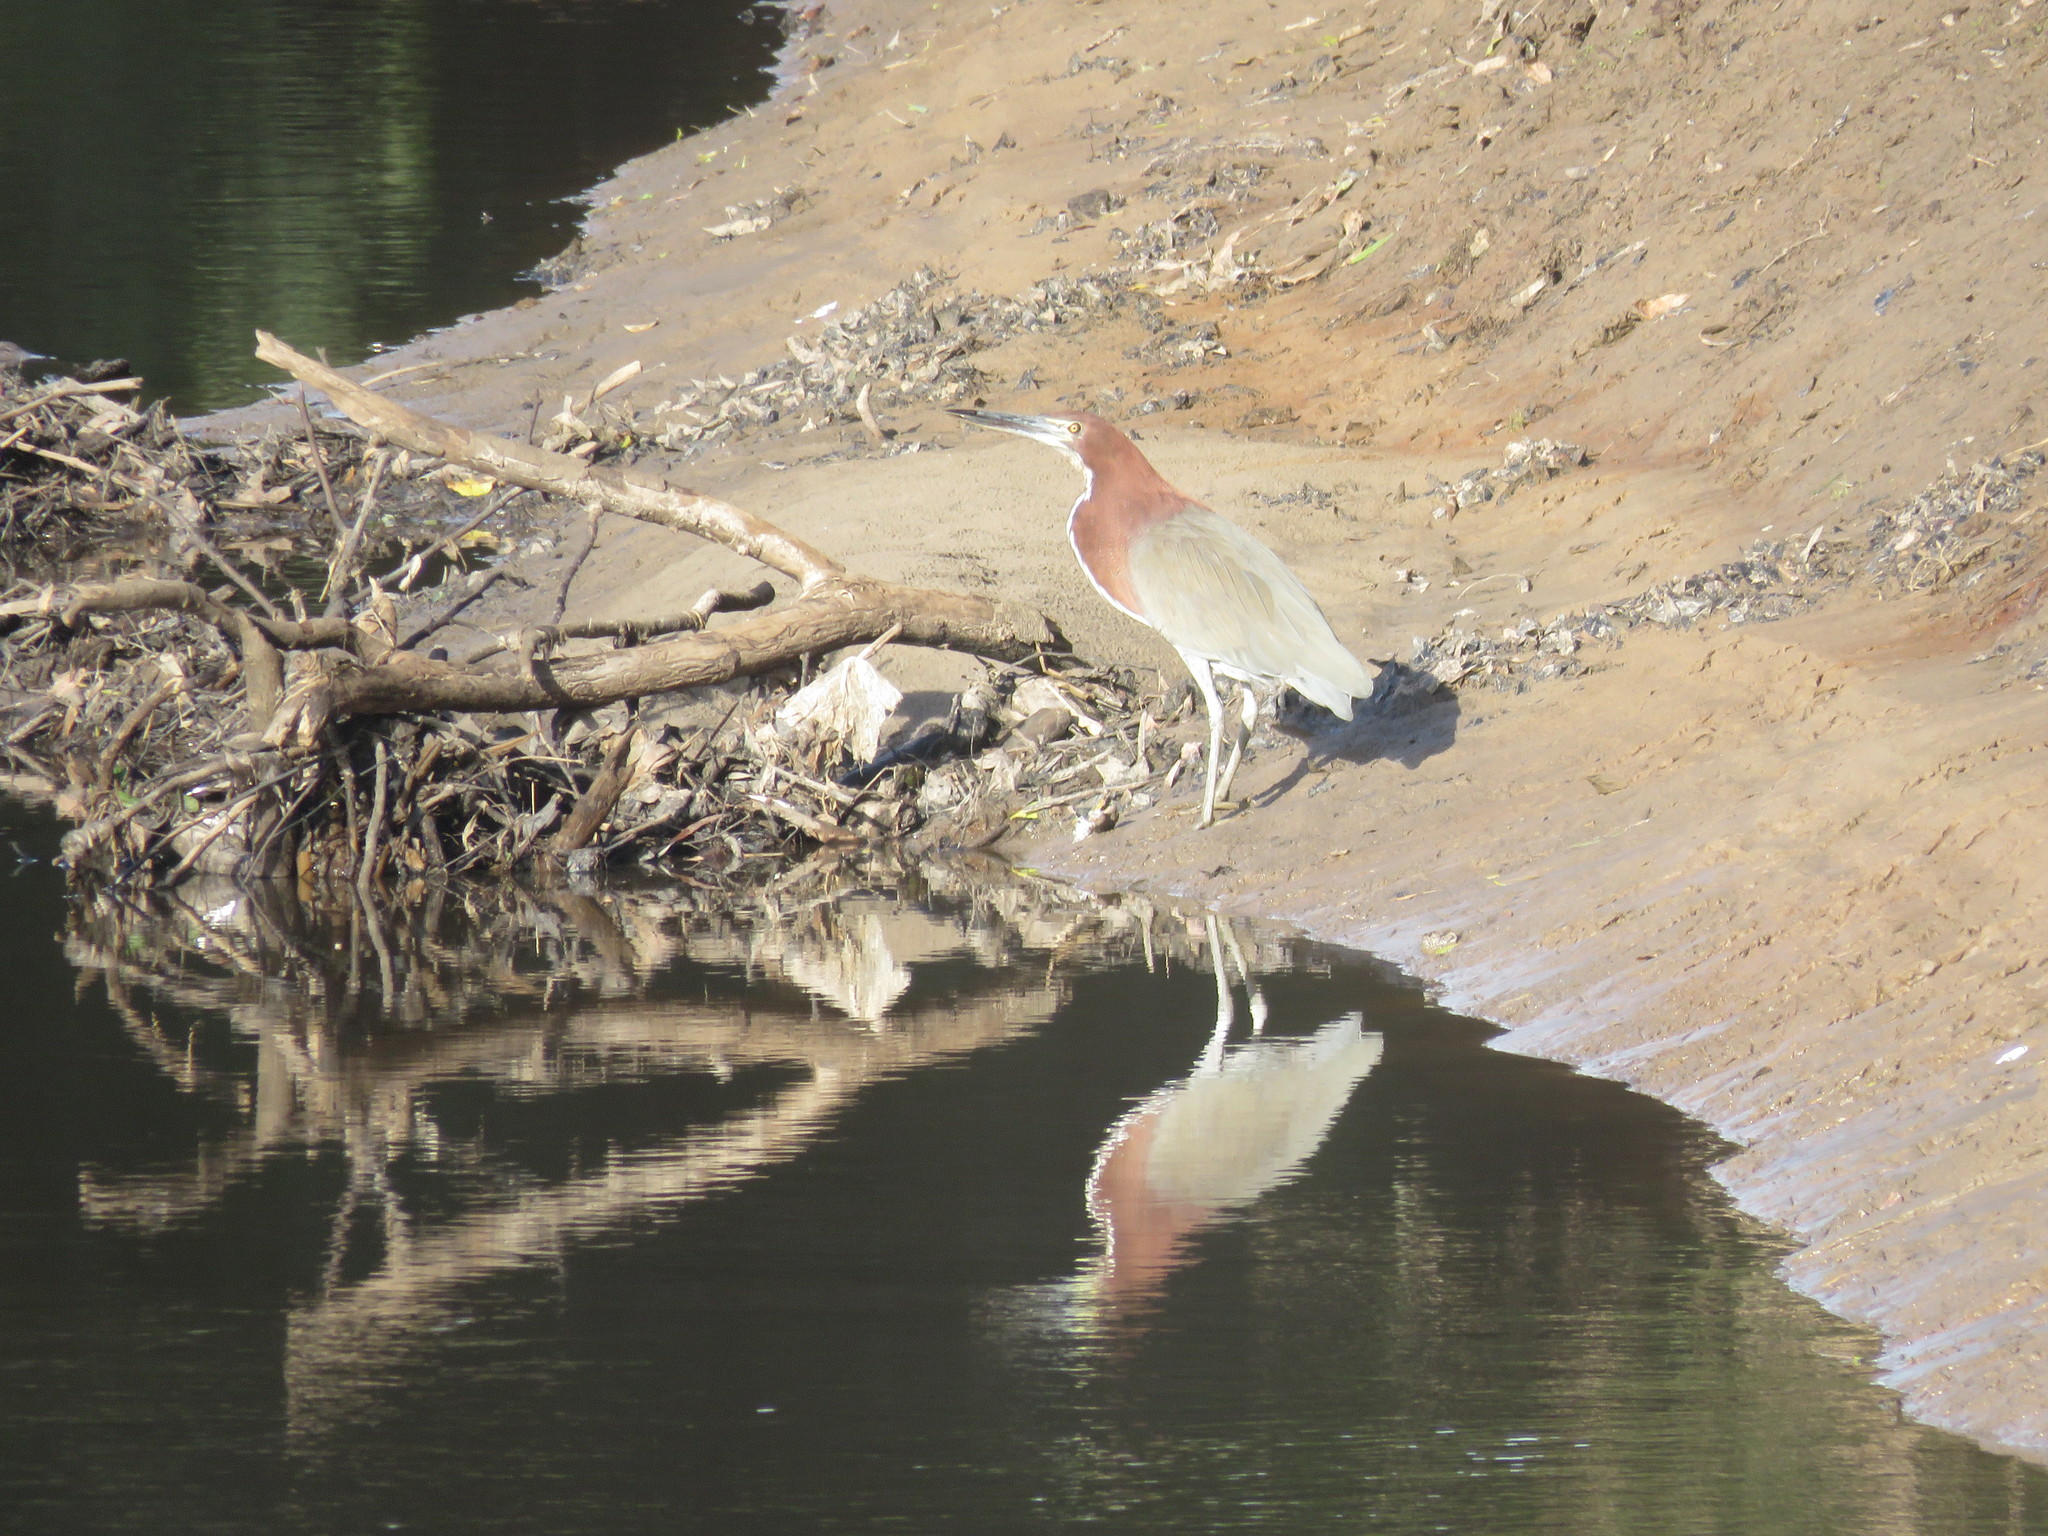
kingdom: Animalia
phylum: Chordata
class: Aves
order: Pelecaniformes
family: Ardeidae
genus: Tigrisoma
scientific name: Tigrisoma lineatum
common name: Rufescent tiger-heron
